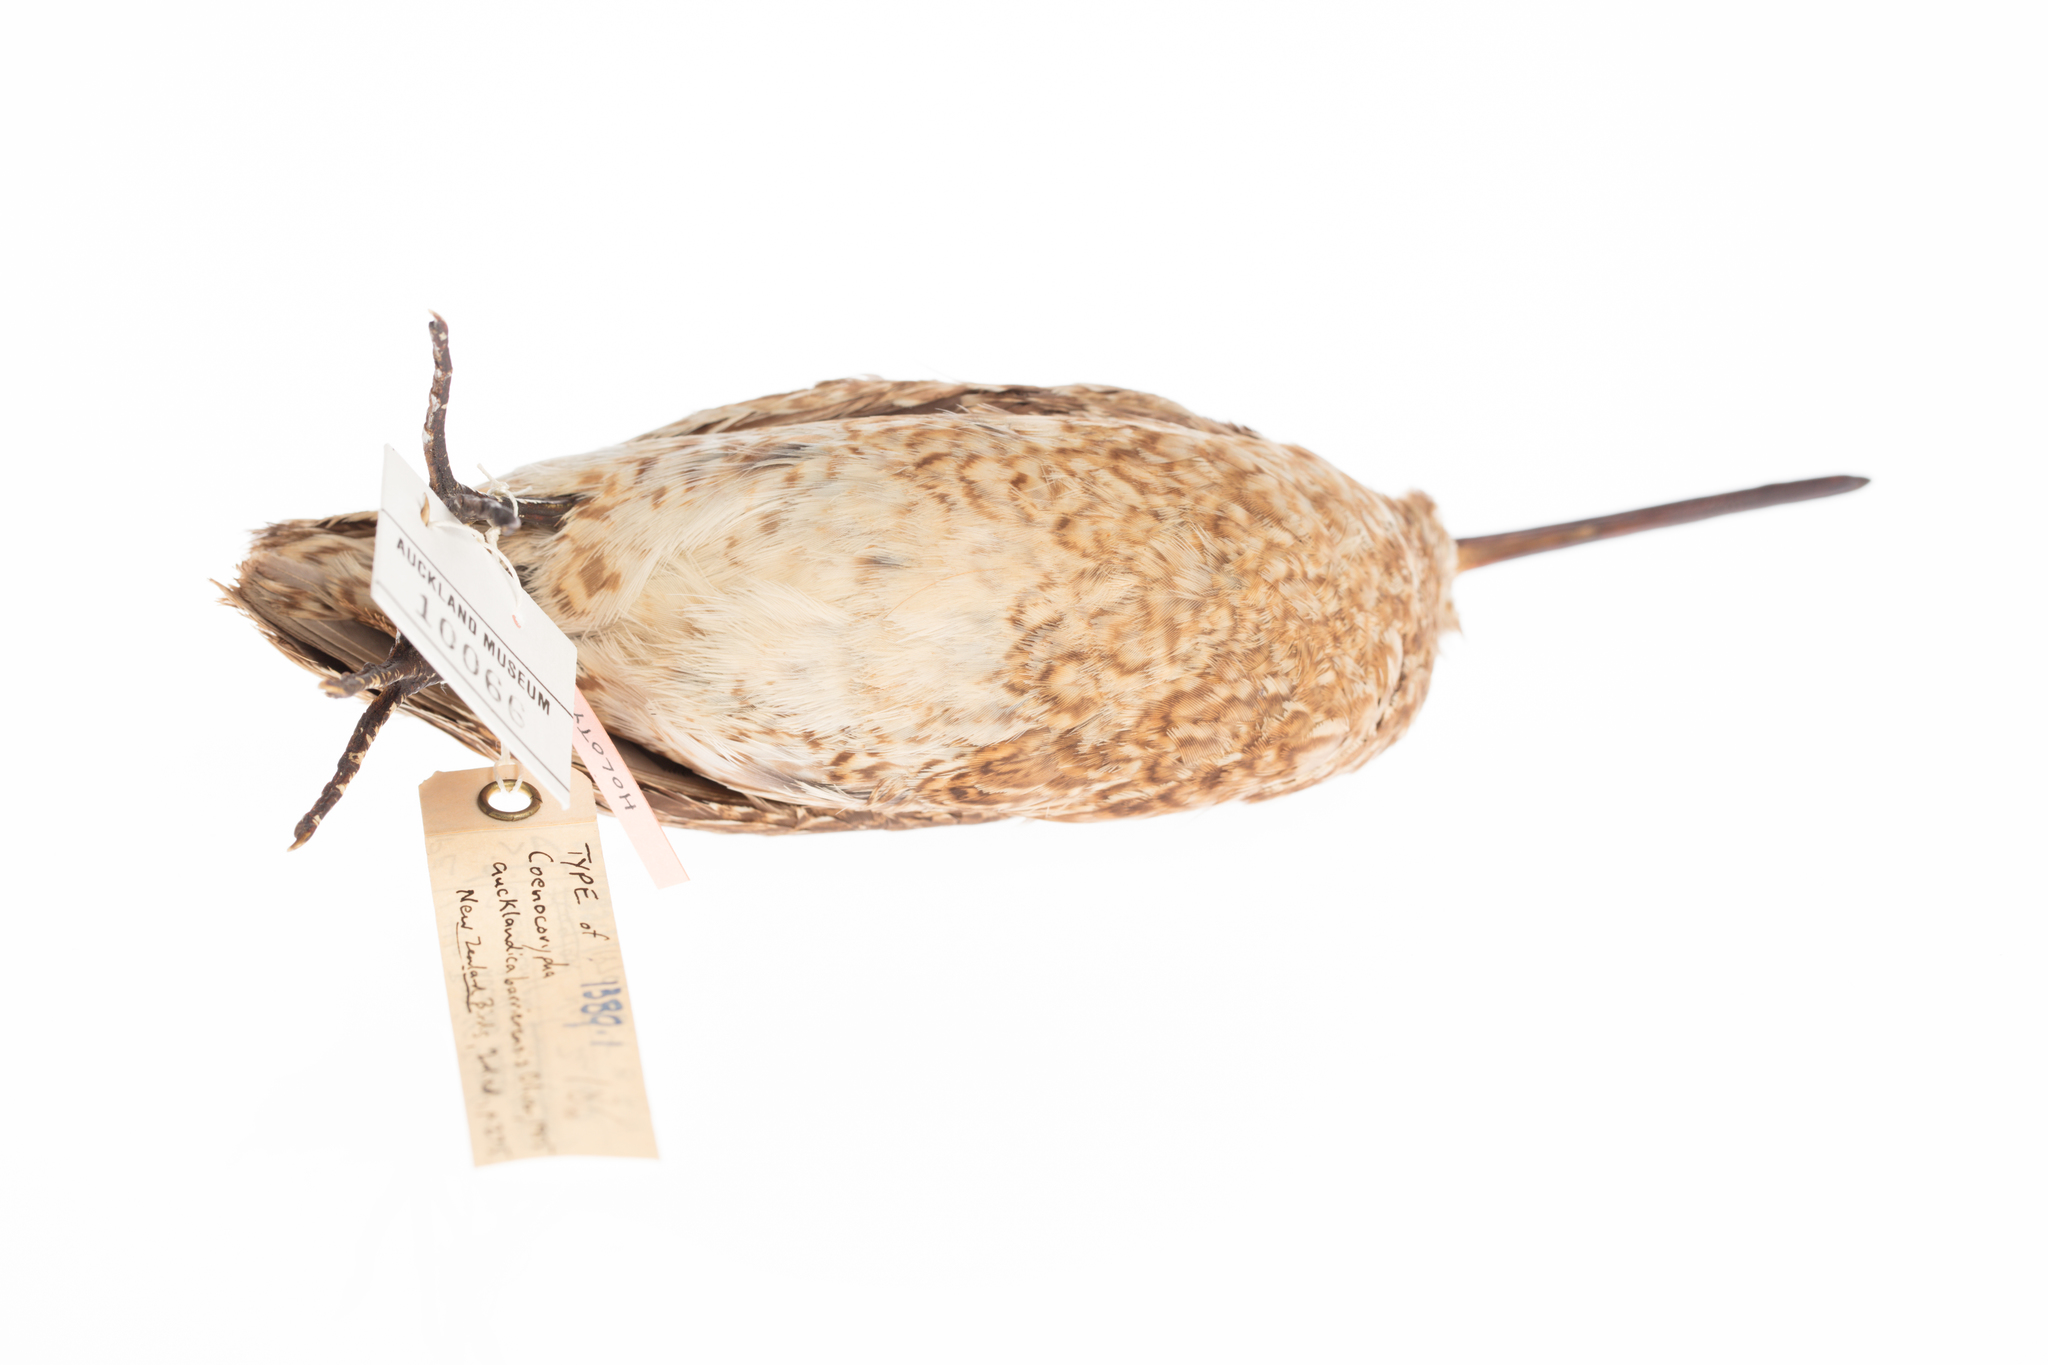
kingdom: Animalia
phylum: Chordata
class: Aves
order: Charadriiformes
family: Scolopacidae
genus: Coenocorypha
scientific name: Coenocorypha barrierensis
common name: North island snipe
